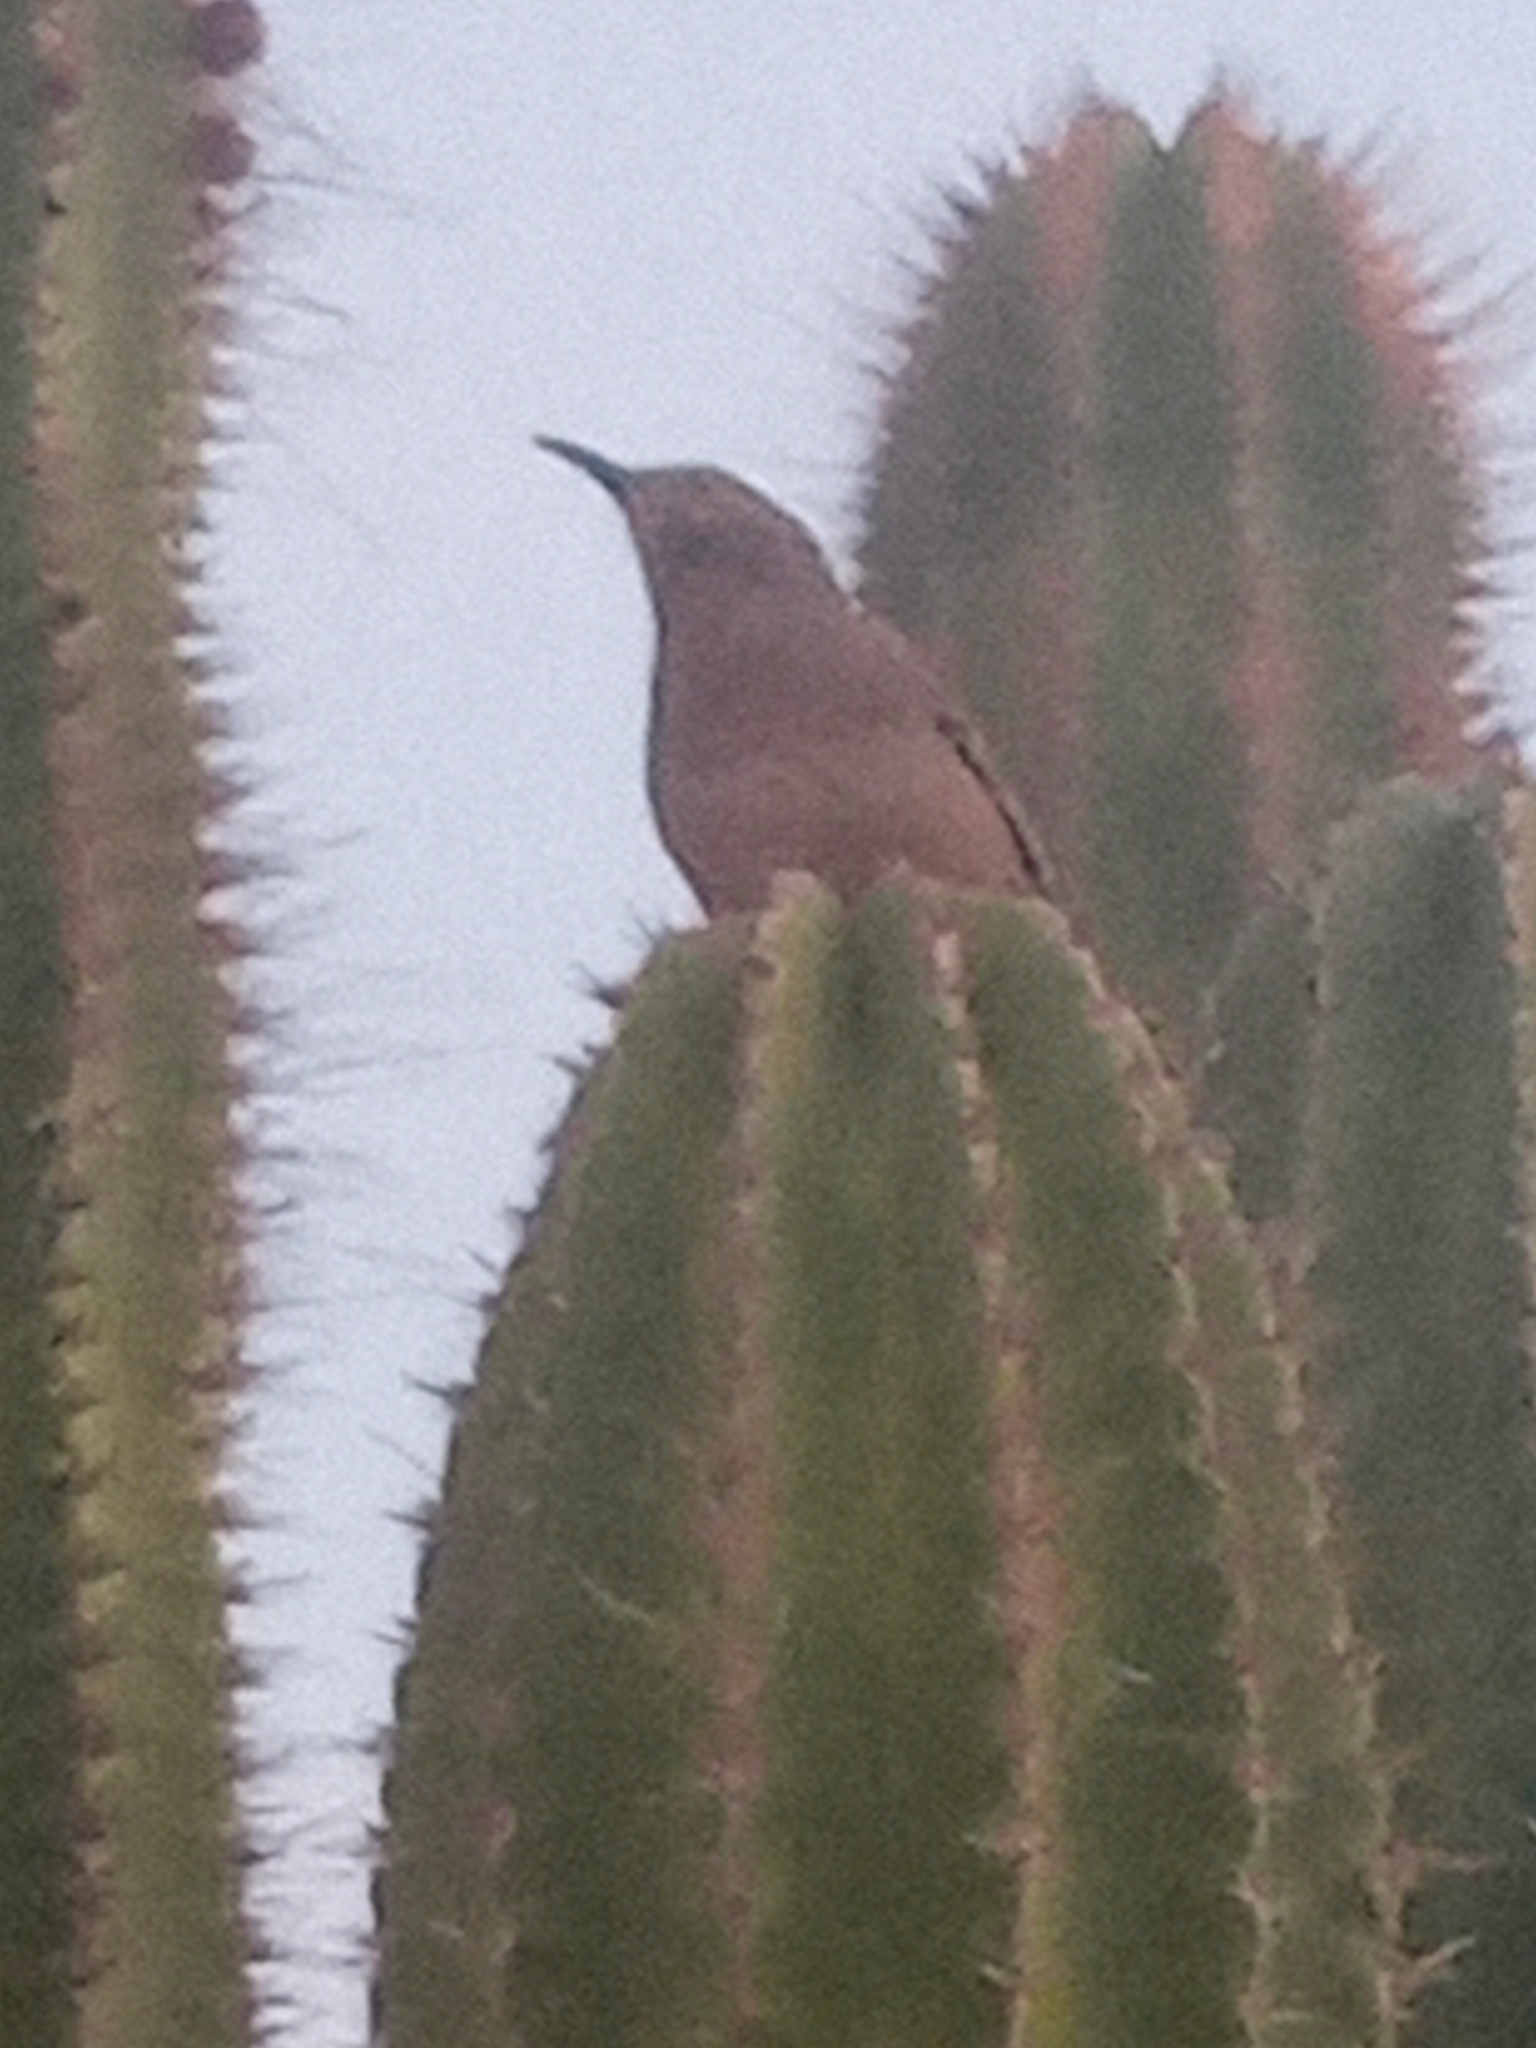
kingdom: Animalia
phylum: Chordata
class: Aves
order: Passeriformes
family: Mimidae
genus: Toxostoma
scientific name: Toxostoma curvirostre
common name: Curve-billed thrasher
